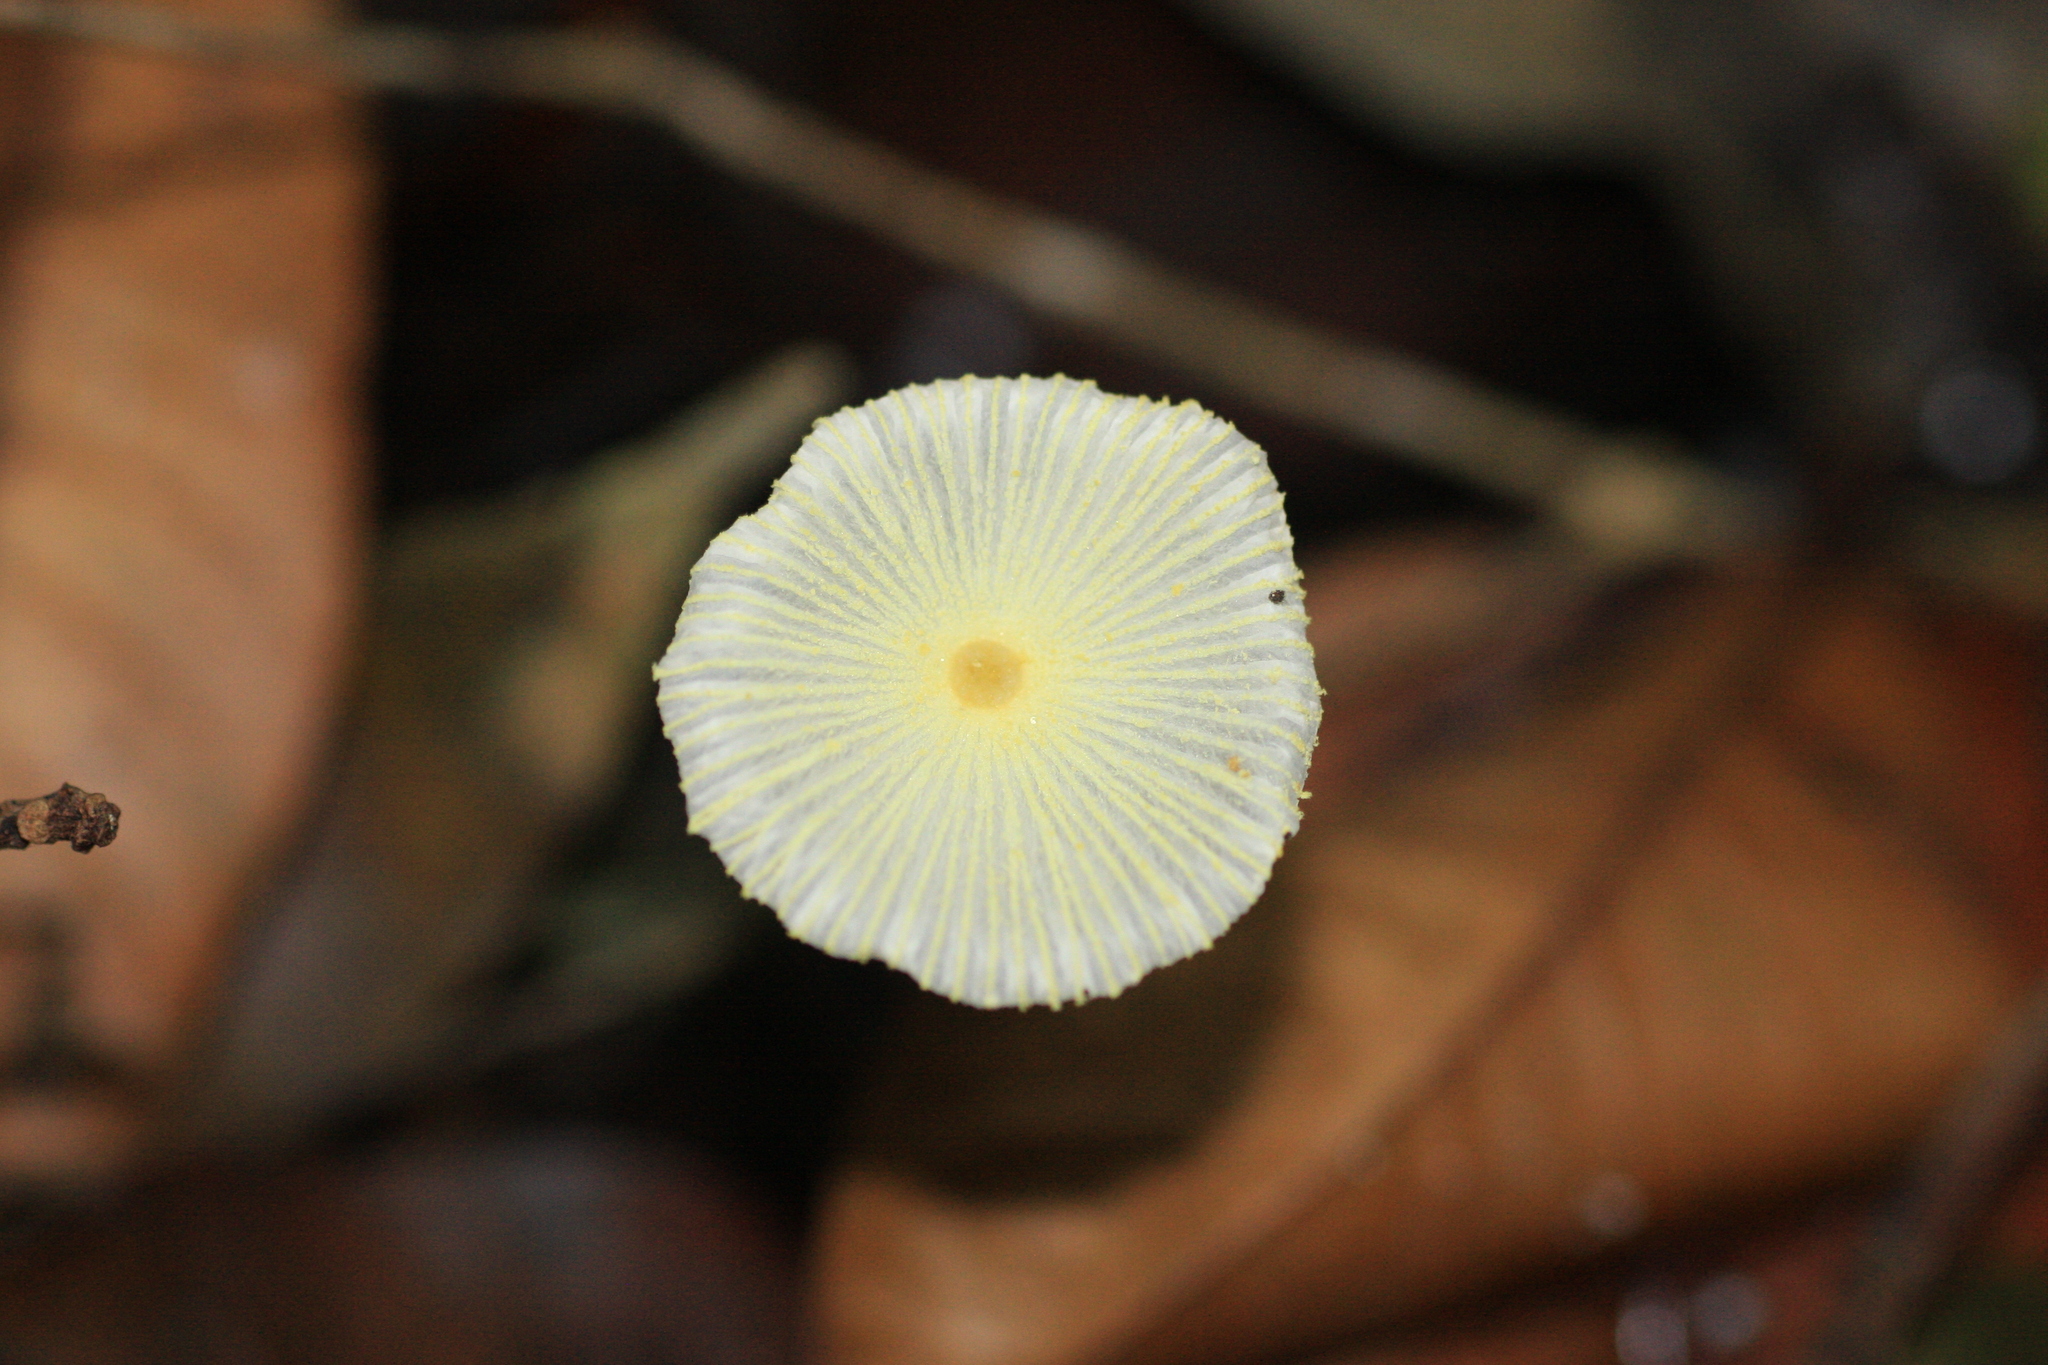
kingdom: Fungi
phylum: Basidiomycota
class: Agaricomycetes
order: Agaricales
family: Agaricaceae
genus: Leucocoprinus
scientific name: Leucocoprinus fragilissimus
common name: Fragile dapperling
